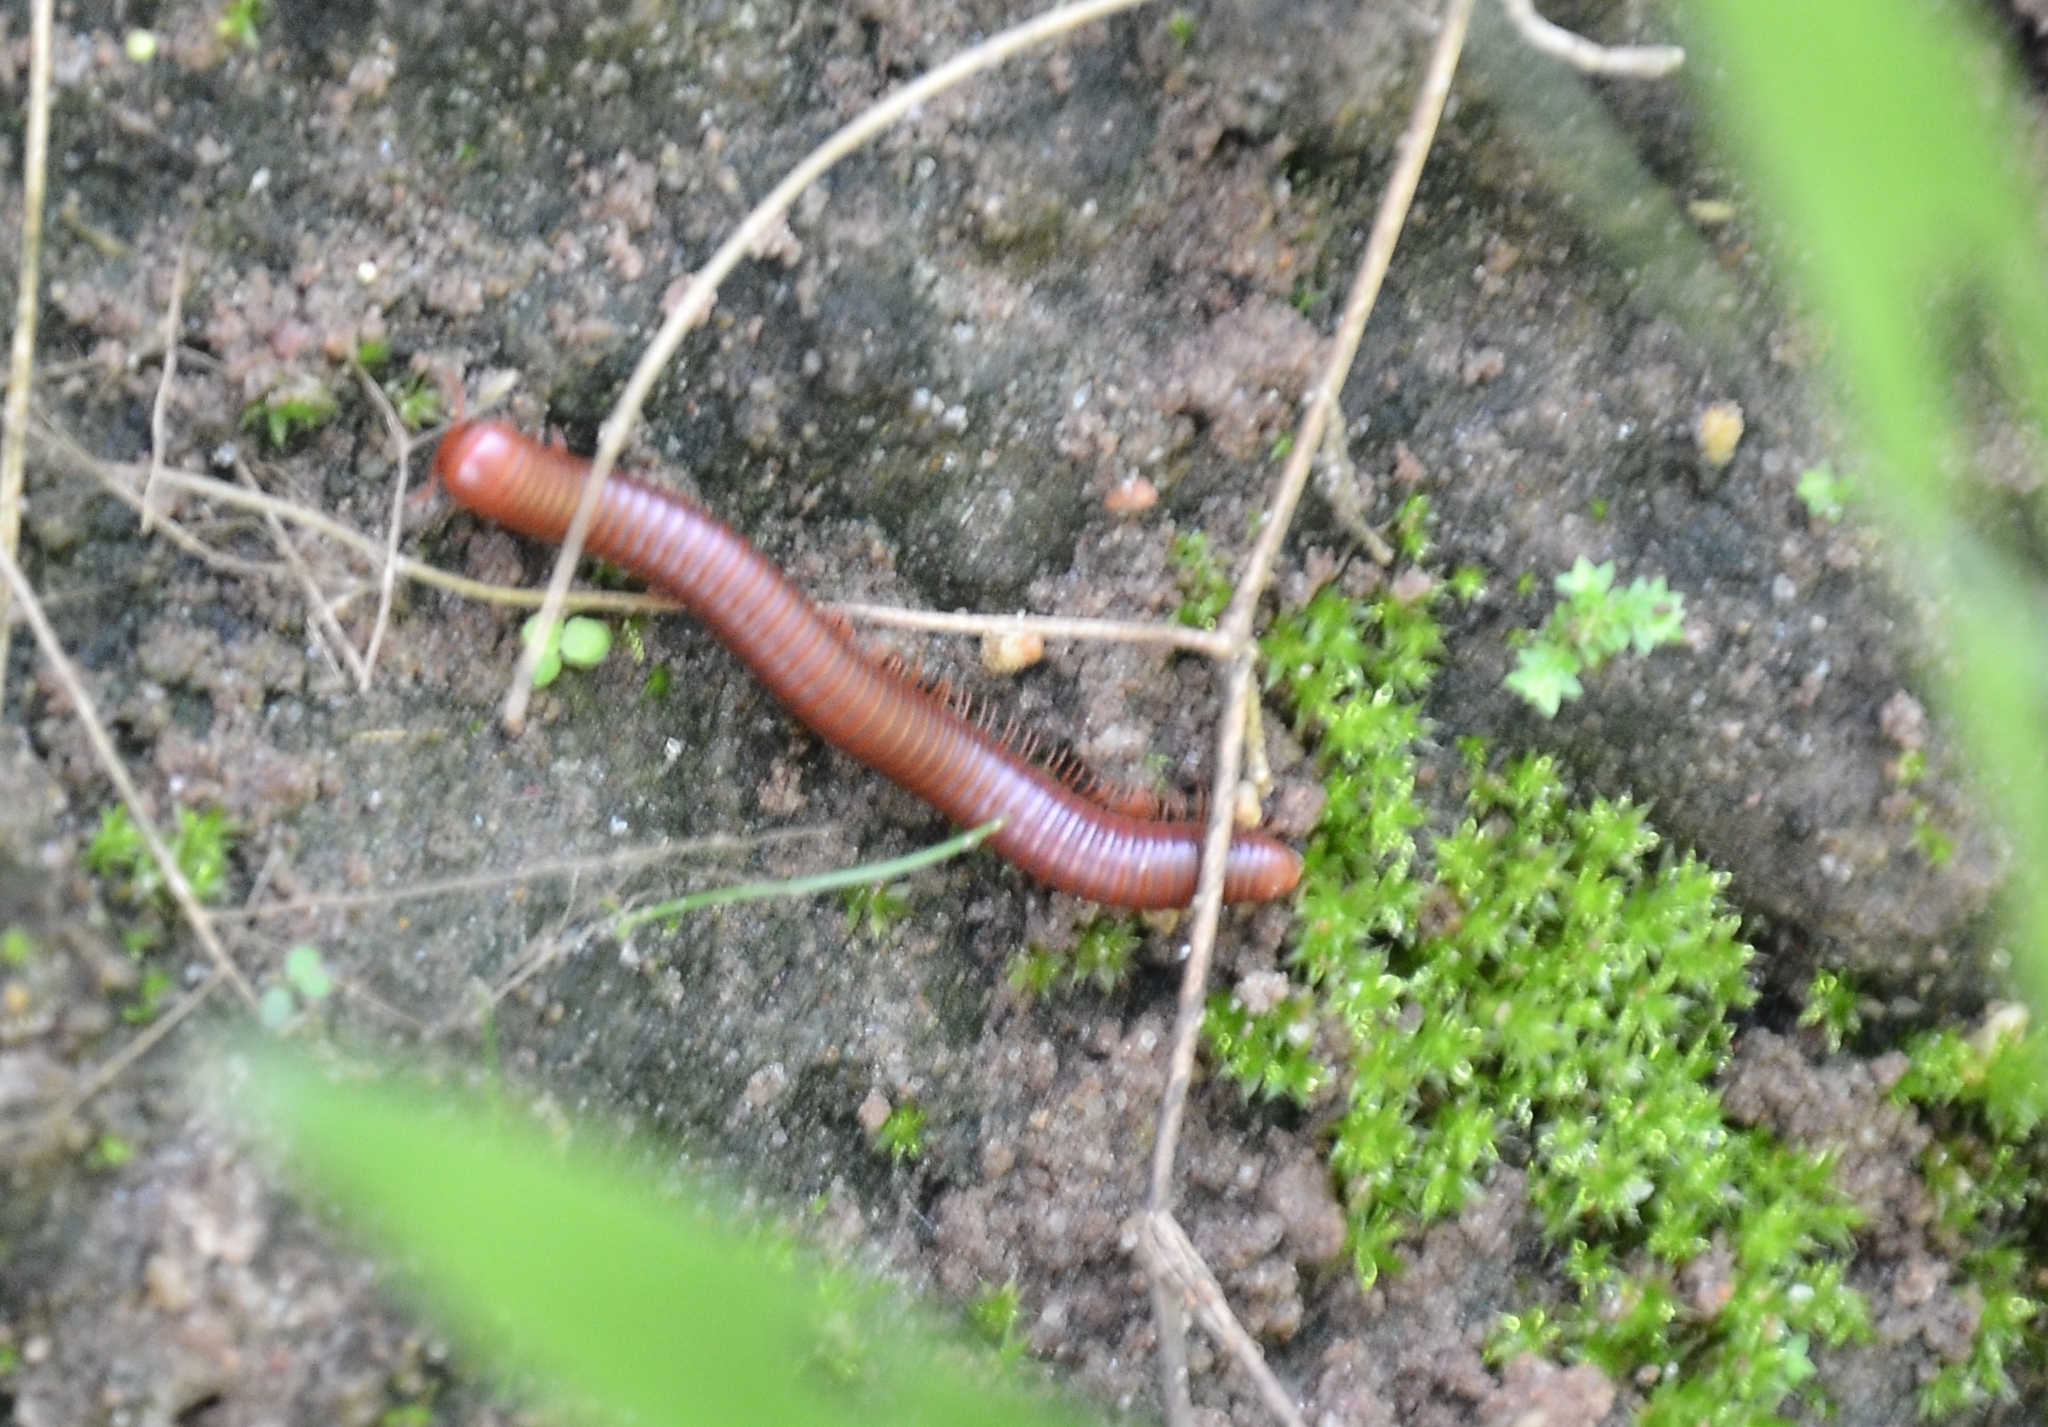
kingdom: Animalia
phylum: Arthropoda
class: Diplopoda
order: Spirobolida
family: Pachybolidae
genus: Trigoniulus
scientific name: Trigoniulus corallinus
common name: Millipede
